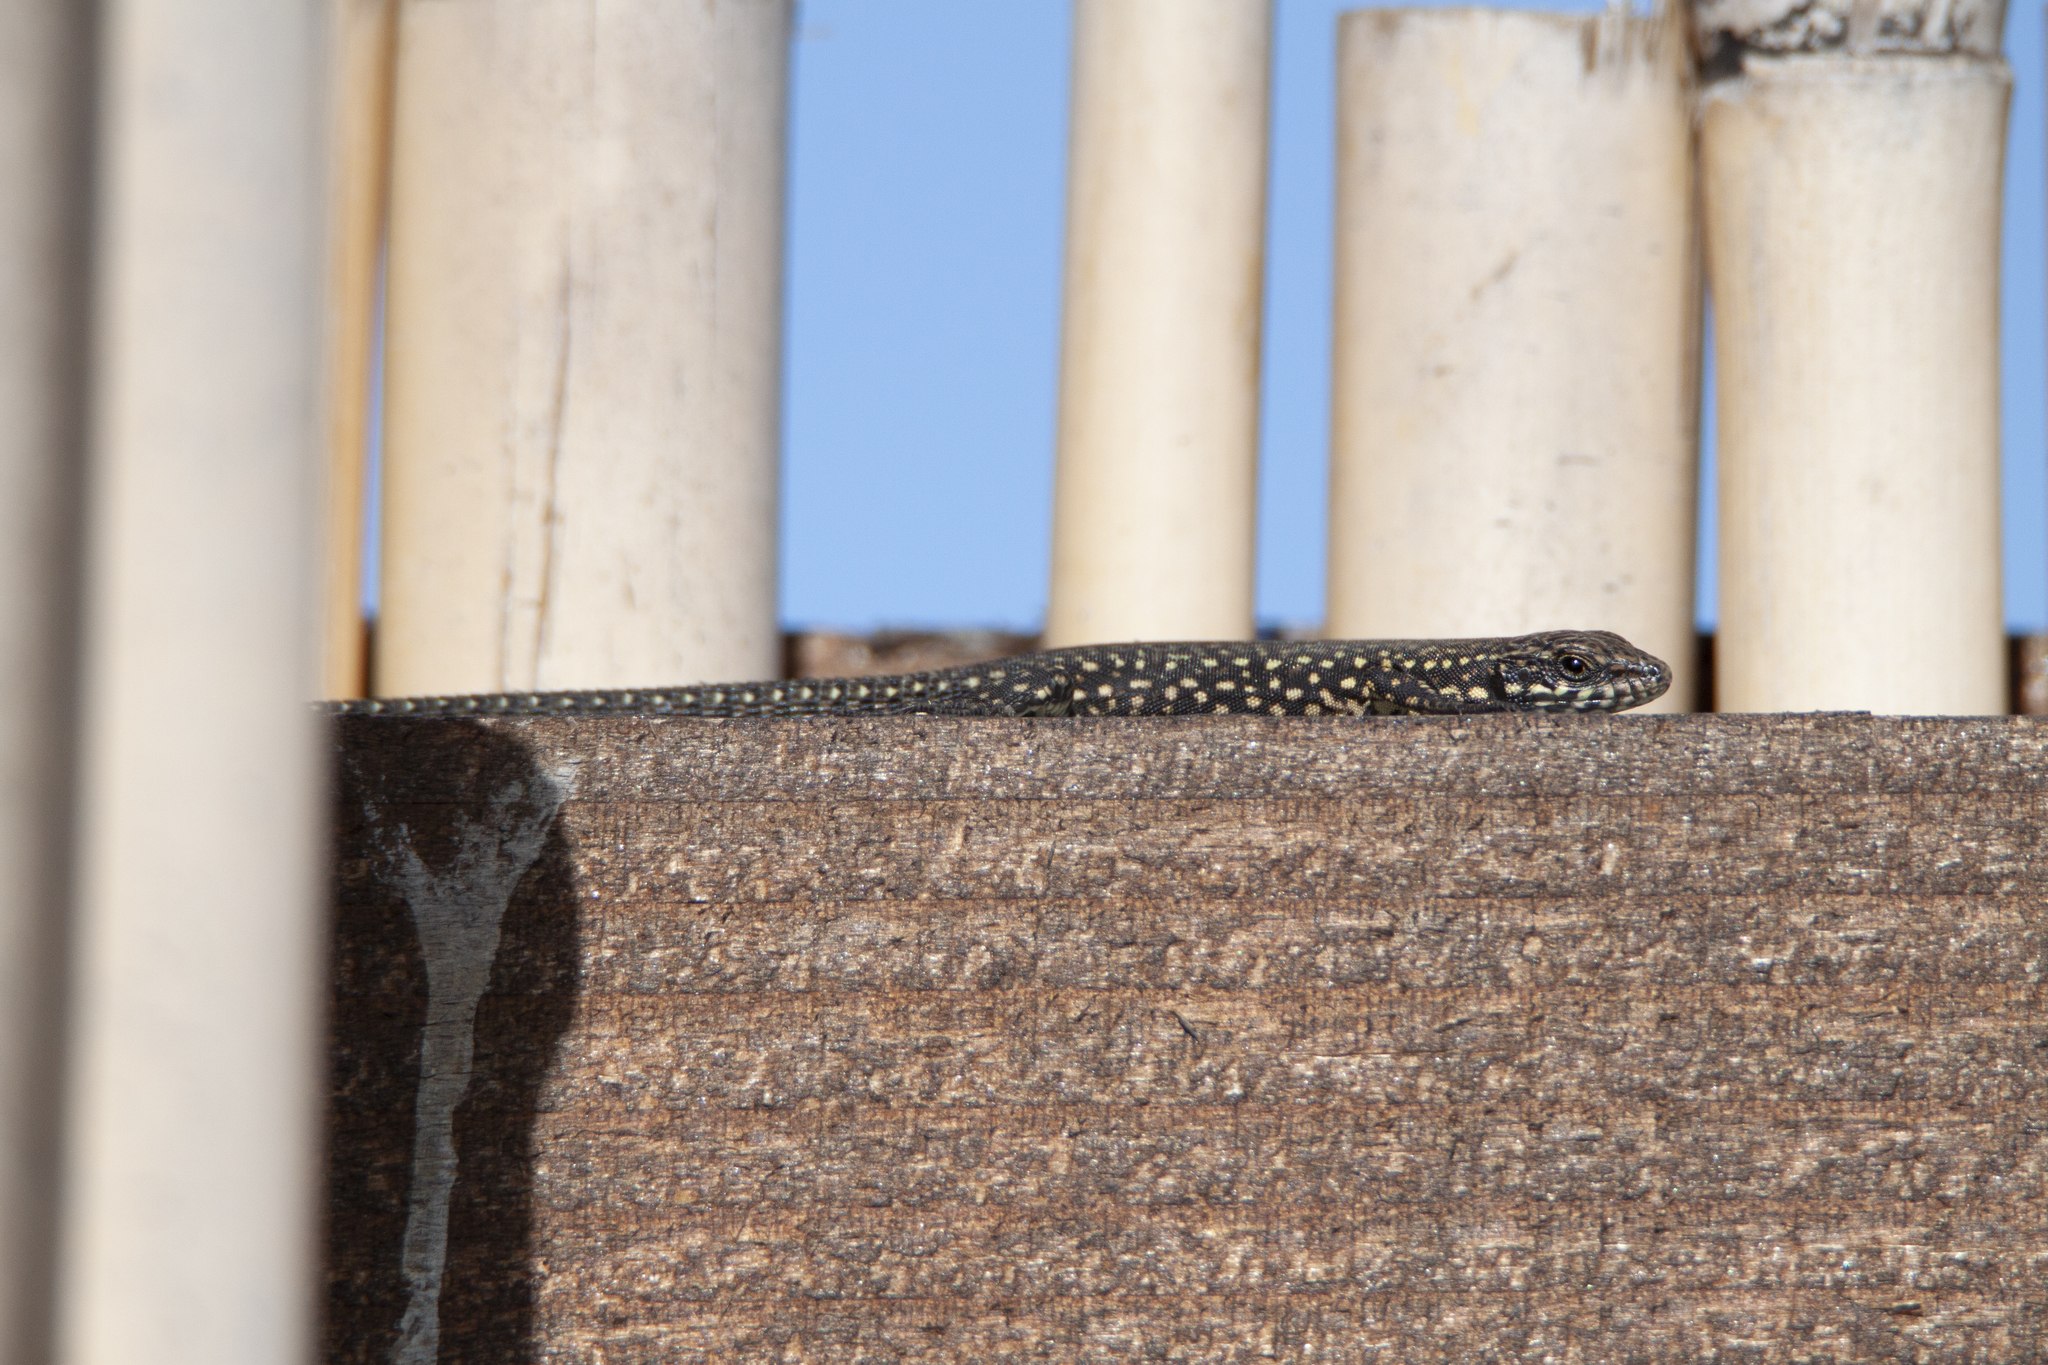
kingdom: Animalia
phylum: Chordata
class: Squamata
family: Lacertidae
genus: Podarcis
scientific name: Podarcis muralis
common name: Common wall lizard
